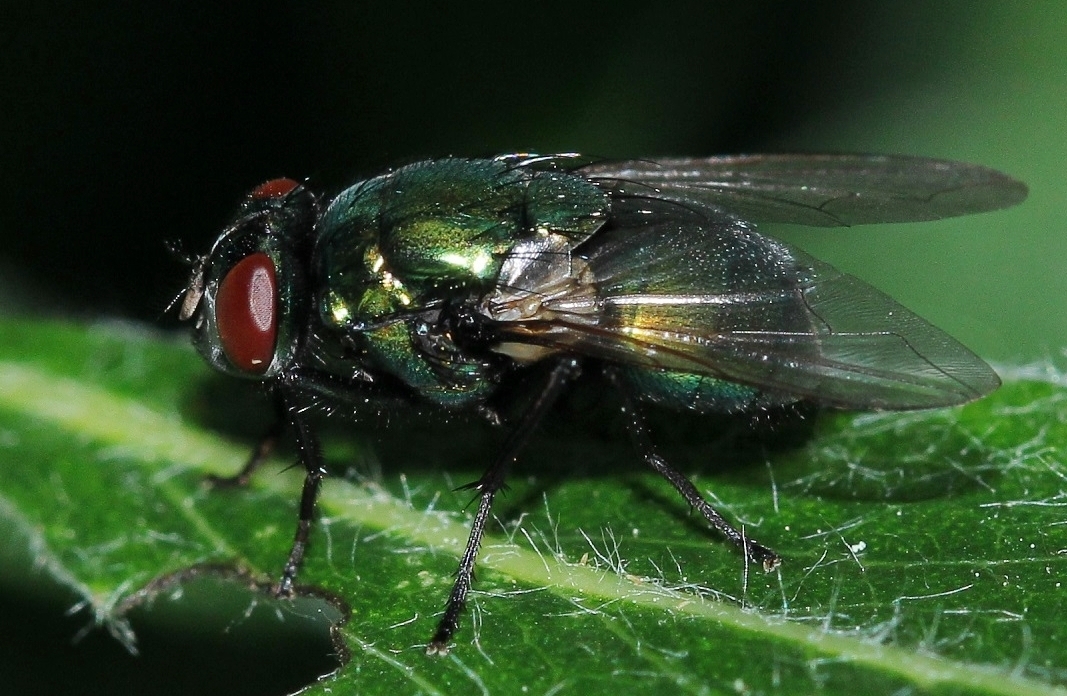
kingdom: Animalia
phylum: Arthropoda
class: Insecta
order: Diptera
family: Muscidae
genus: Neomyia
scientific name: Neomyia cornicina
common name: House fly
